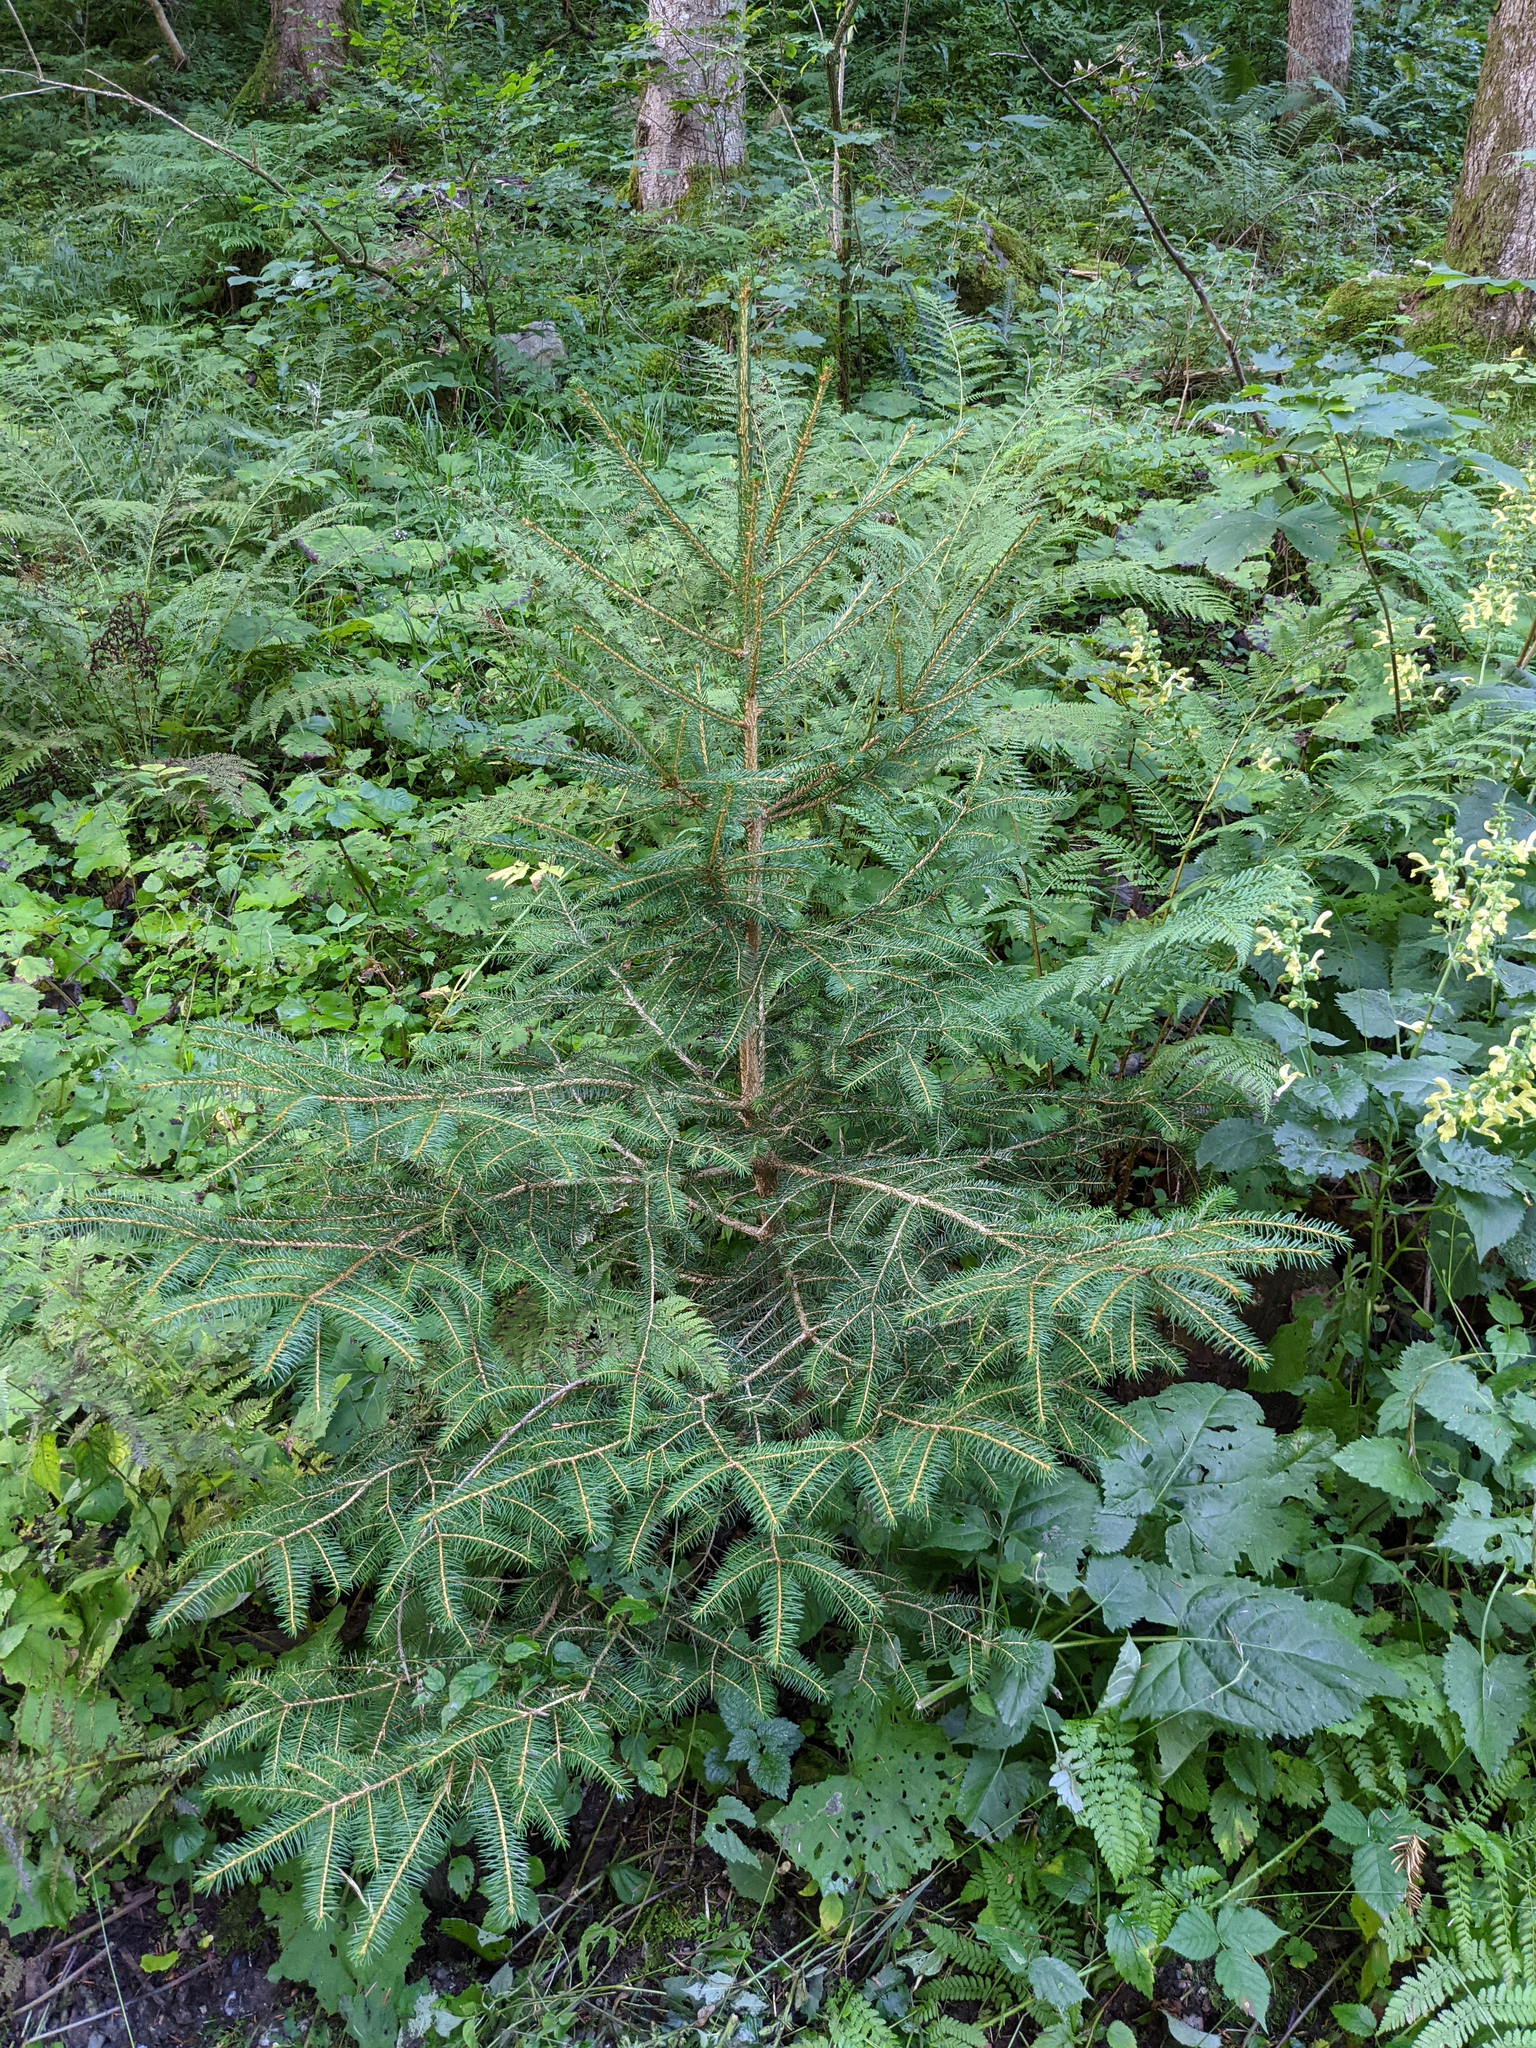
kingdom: Plantae
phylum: Tracheophyta
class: Pinopsida
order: Pinales
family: Pinaceae
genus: Picea
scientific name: Picea abies
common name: Norway spruce
